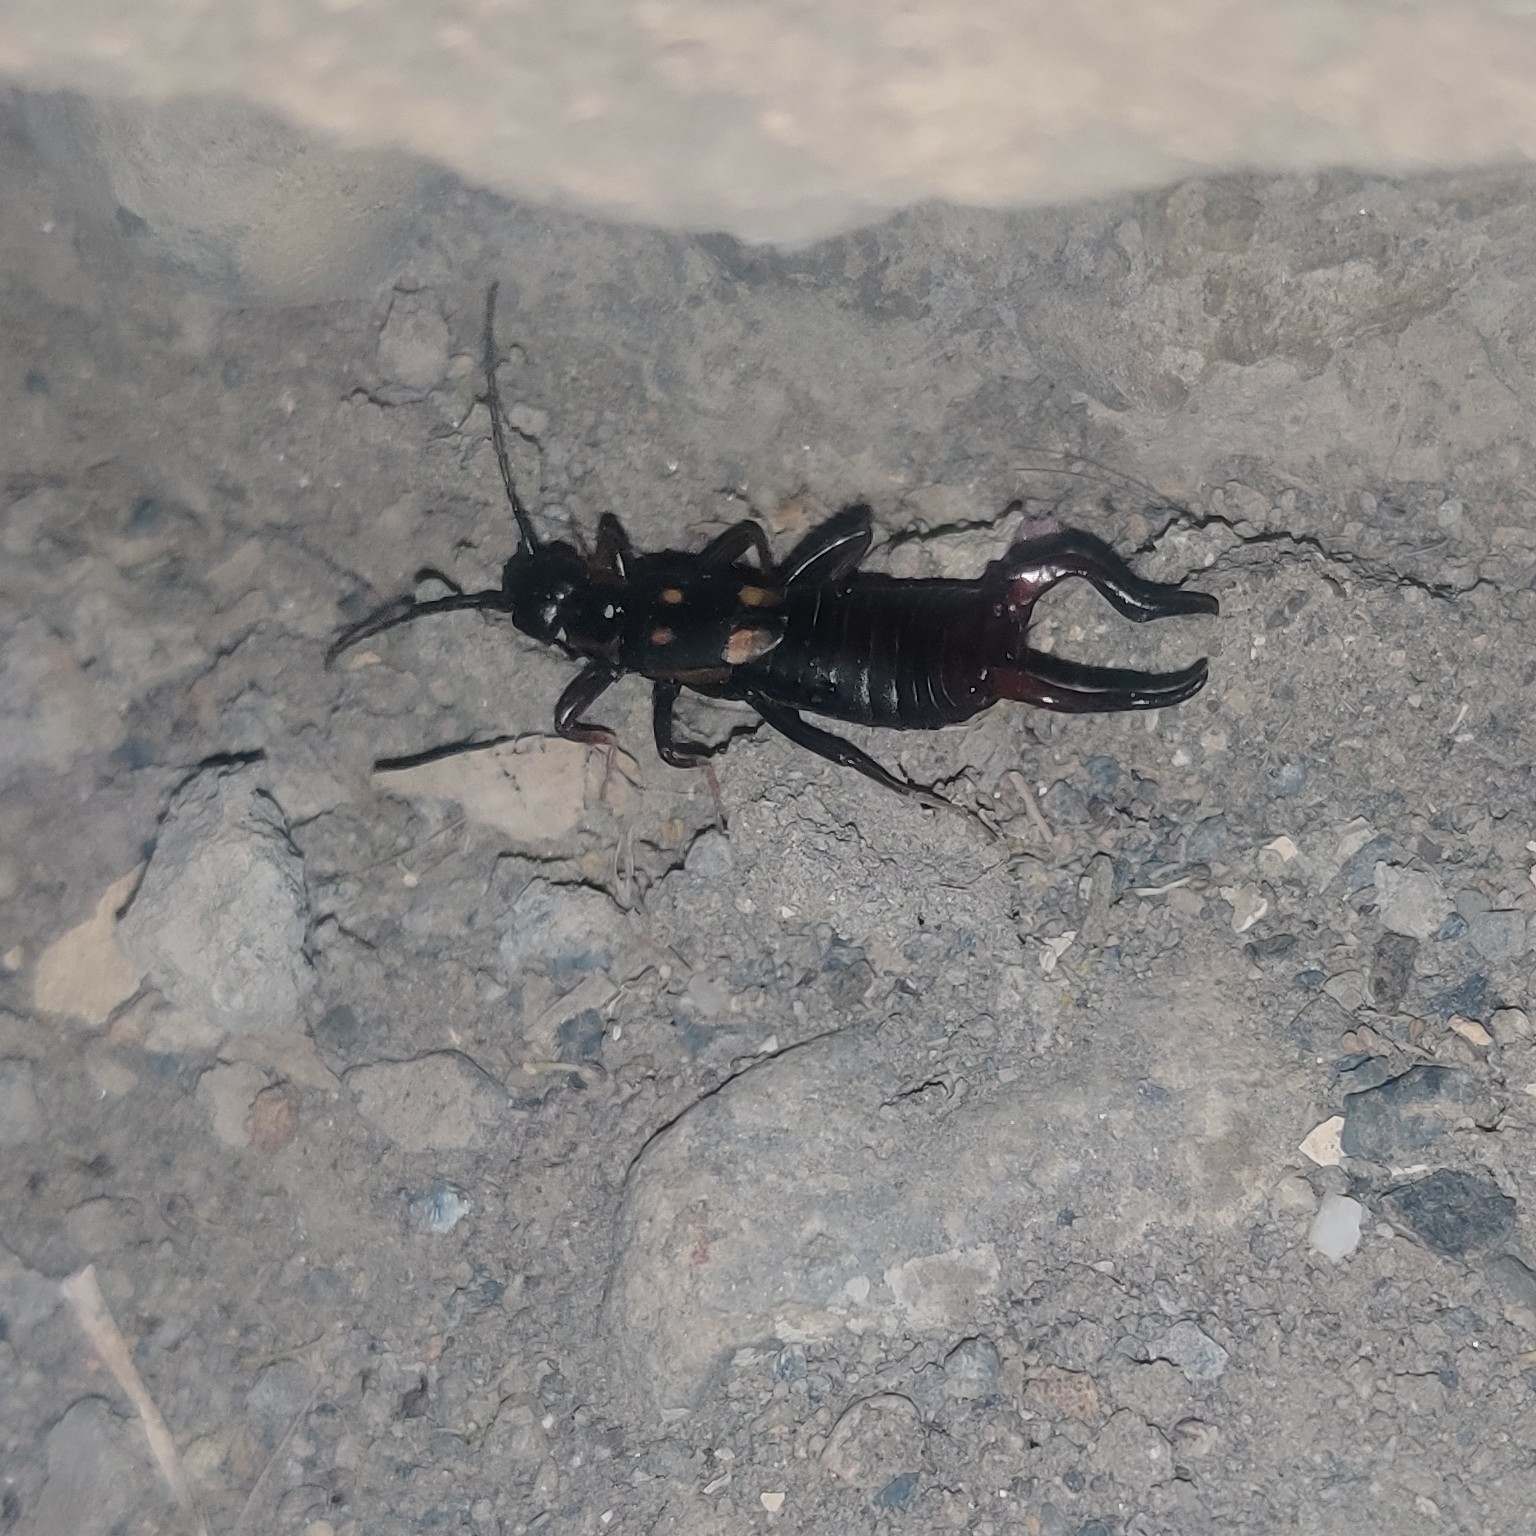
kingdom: Animalia
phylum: Arthropoda
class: Insecta
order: Dermaptera
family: Forficulidae
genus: Anechura
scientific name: Anechura zubovskii
